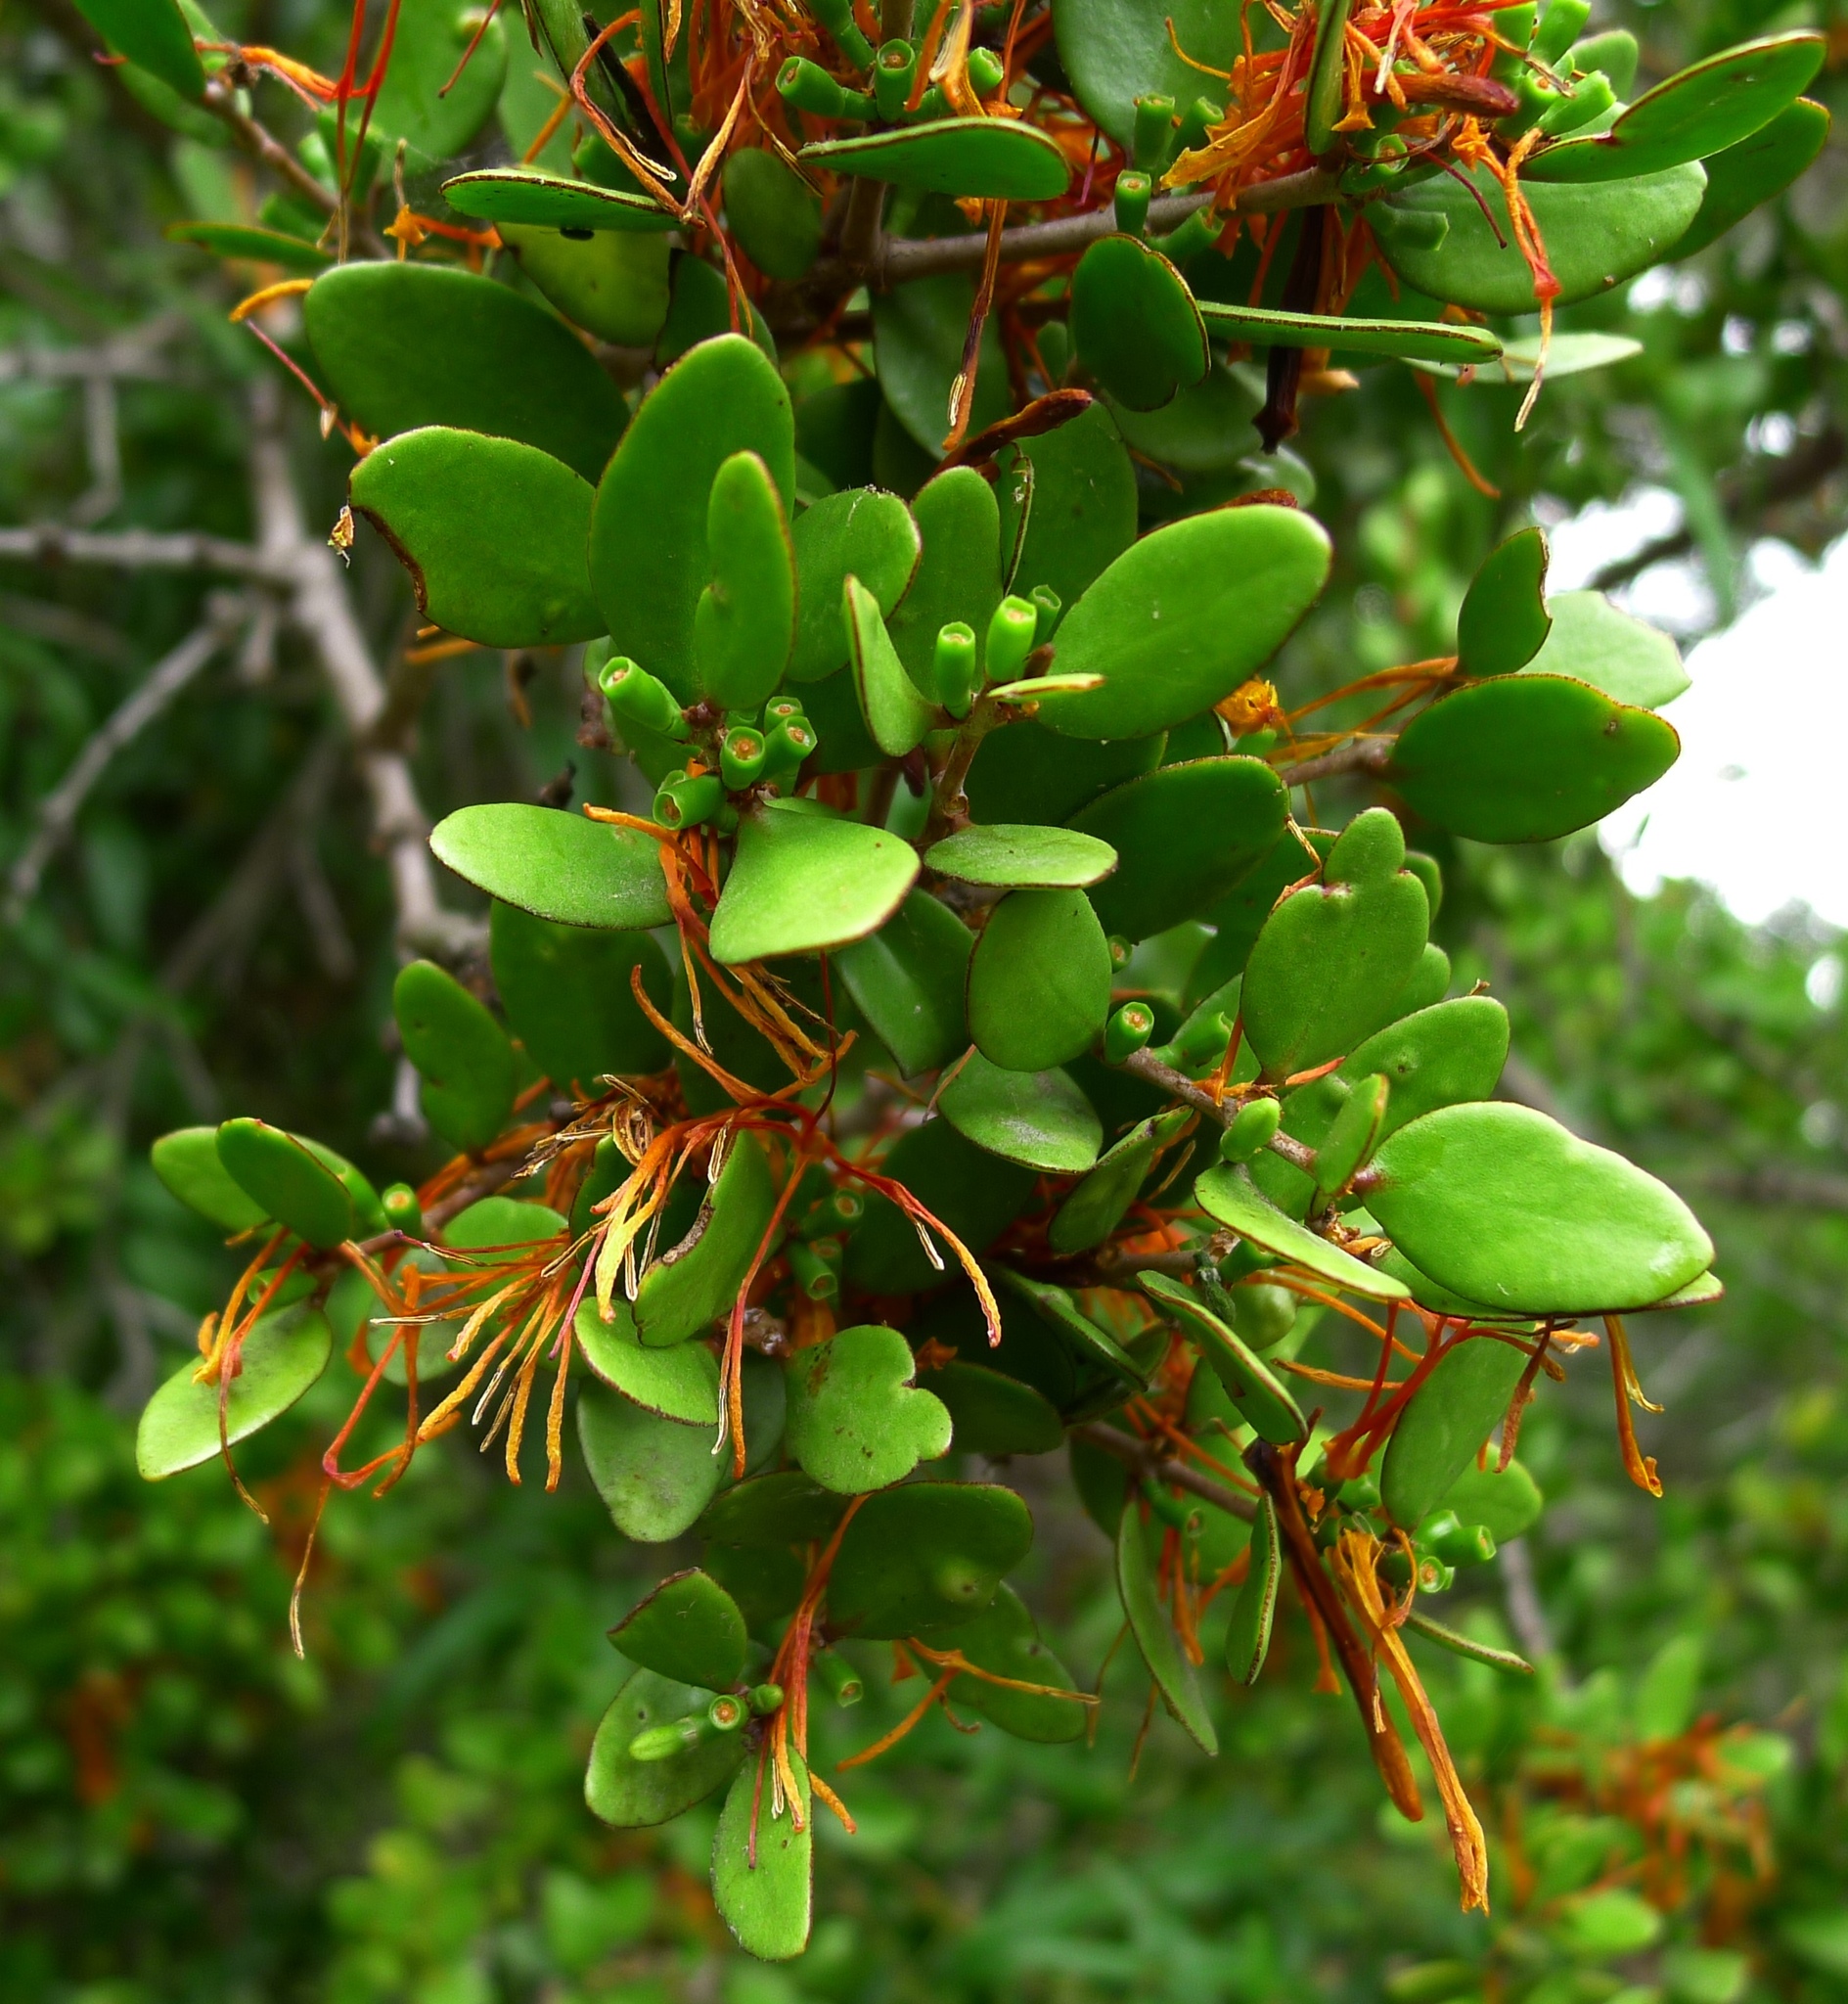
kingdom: Plantae
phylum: Tracheophyta
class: Magnoliopsida
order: Santalales
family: Loranthaceae
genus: Peraxilla
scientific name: Peraxilla tetrapetala
